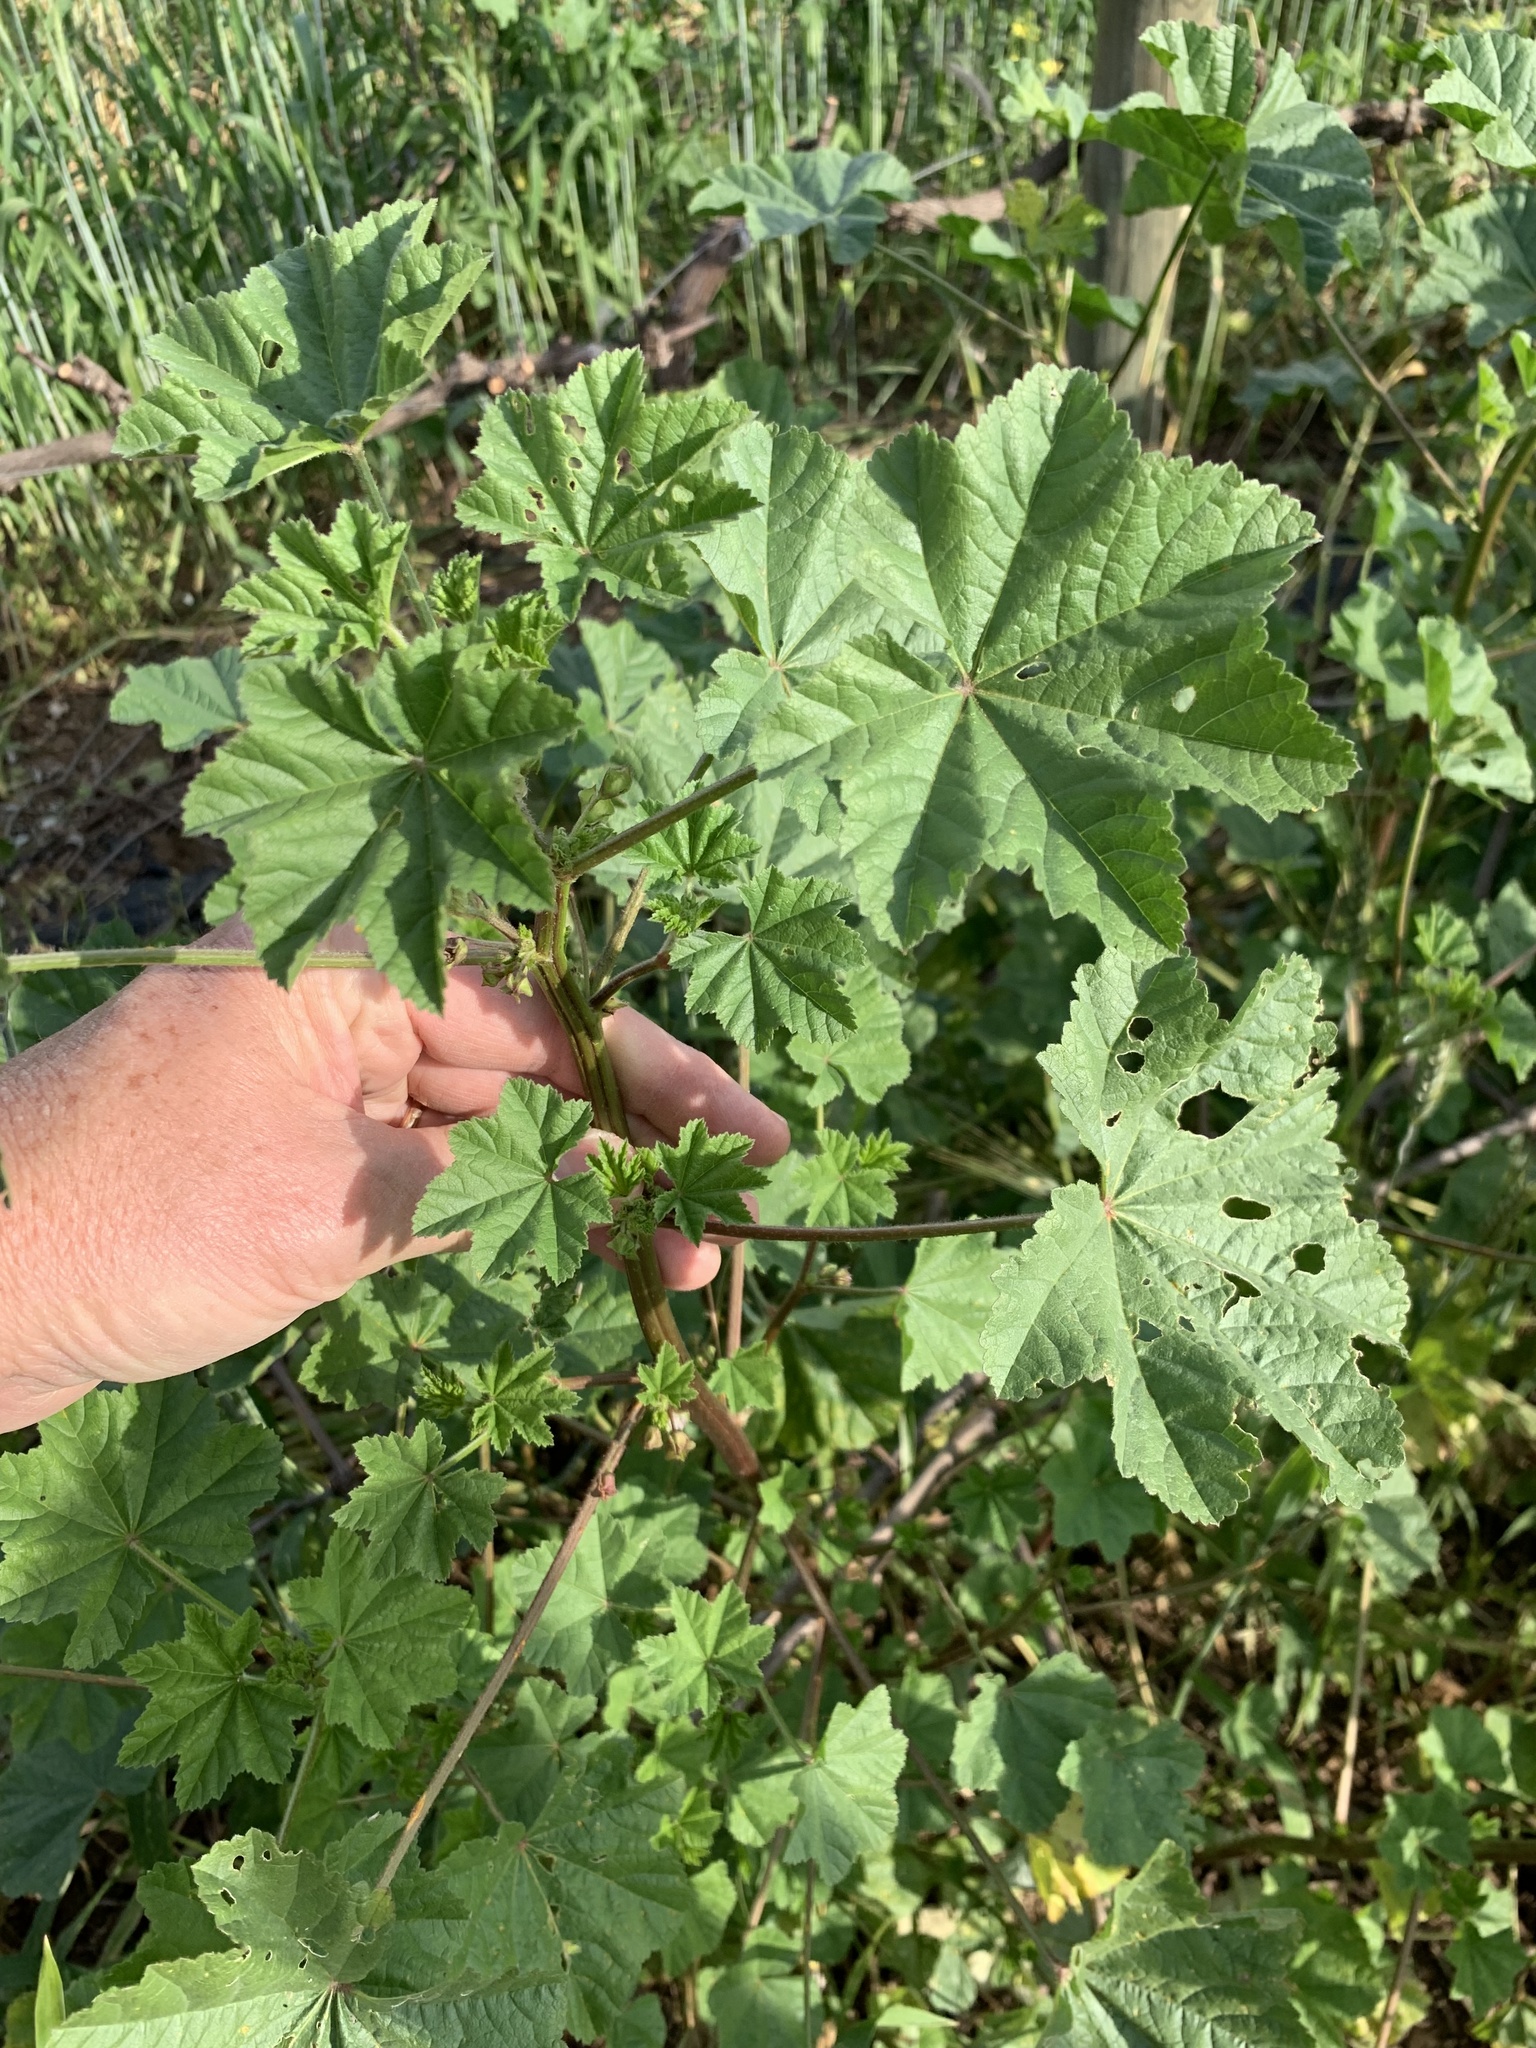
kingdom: Plantae
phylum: Tracheophyta
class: Magnoliopsida
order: Malvales
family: Malvaceae
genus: Malva
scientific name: Malva parviflora
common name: Least mallow
